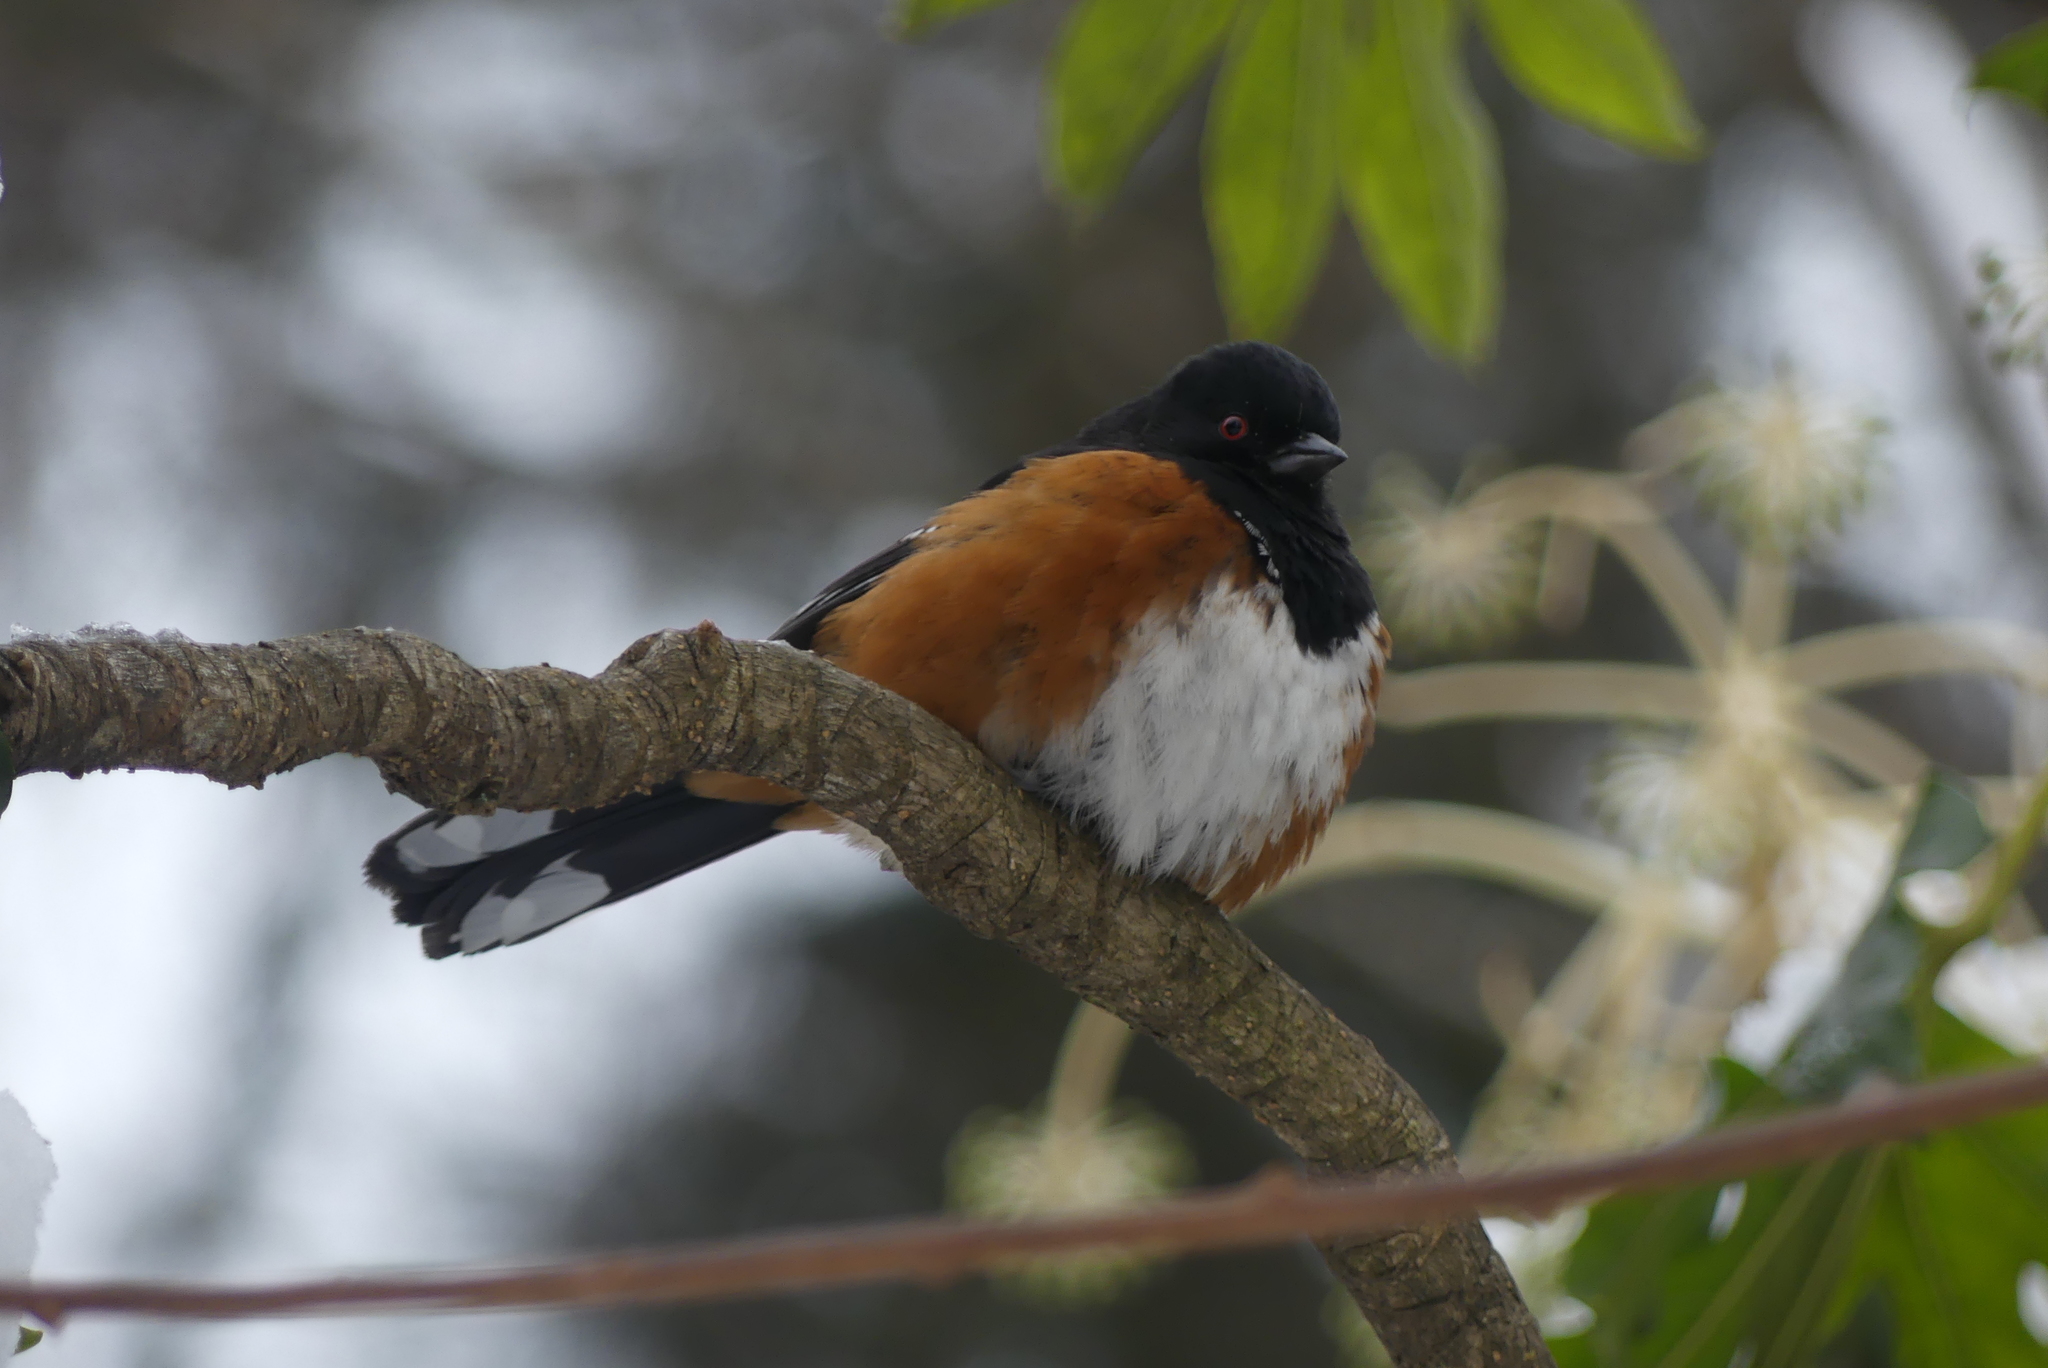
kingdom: Animalia
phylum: Chordata
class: Aves
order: Passeriformes
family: Passerellidae
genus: Pipilo
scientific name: Pipilo maculatus
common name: Spotted towhee
